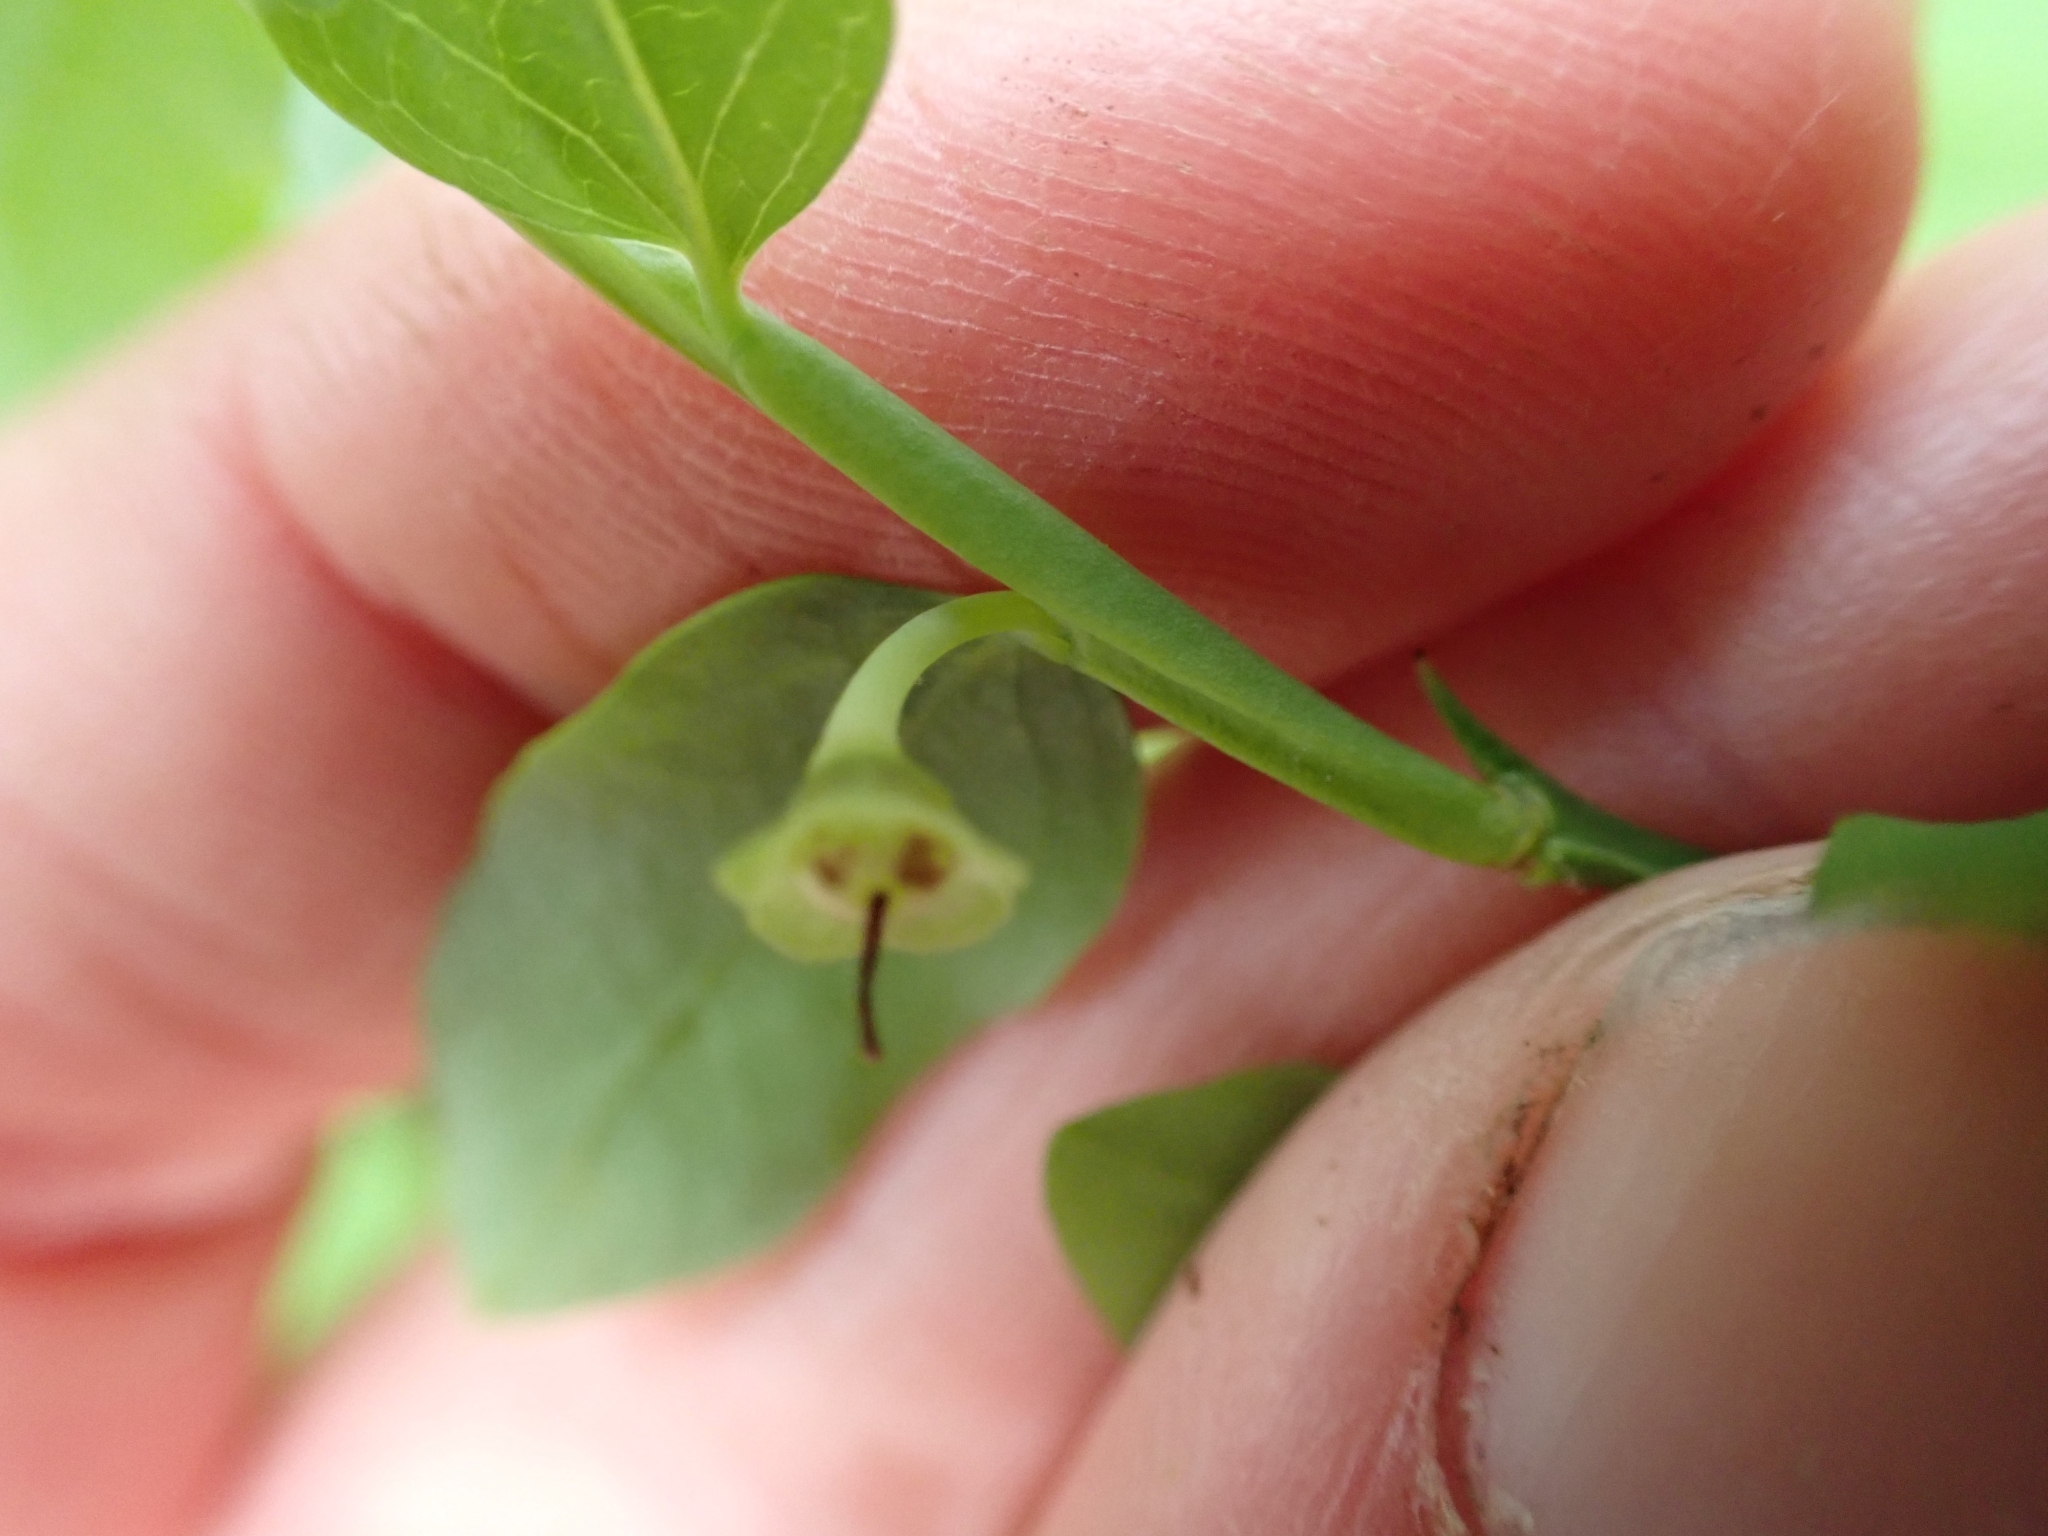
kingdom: Plantae
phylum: Tracheophyta
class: Magnoliopsida
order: Ericales
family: Ericaceae
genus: Vaccinium
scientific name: Vaccinium parvifolium
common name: Red-huckleberry
